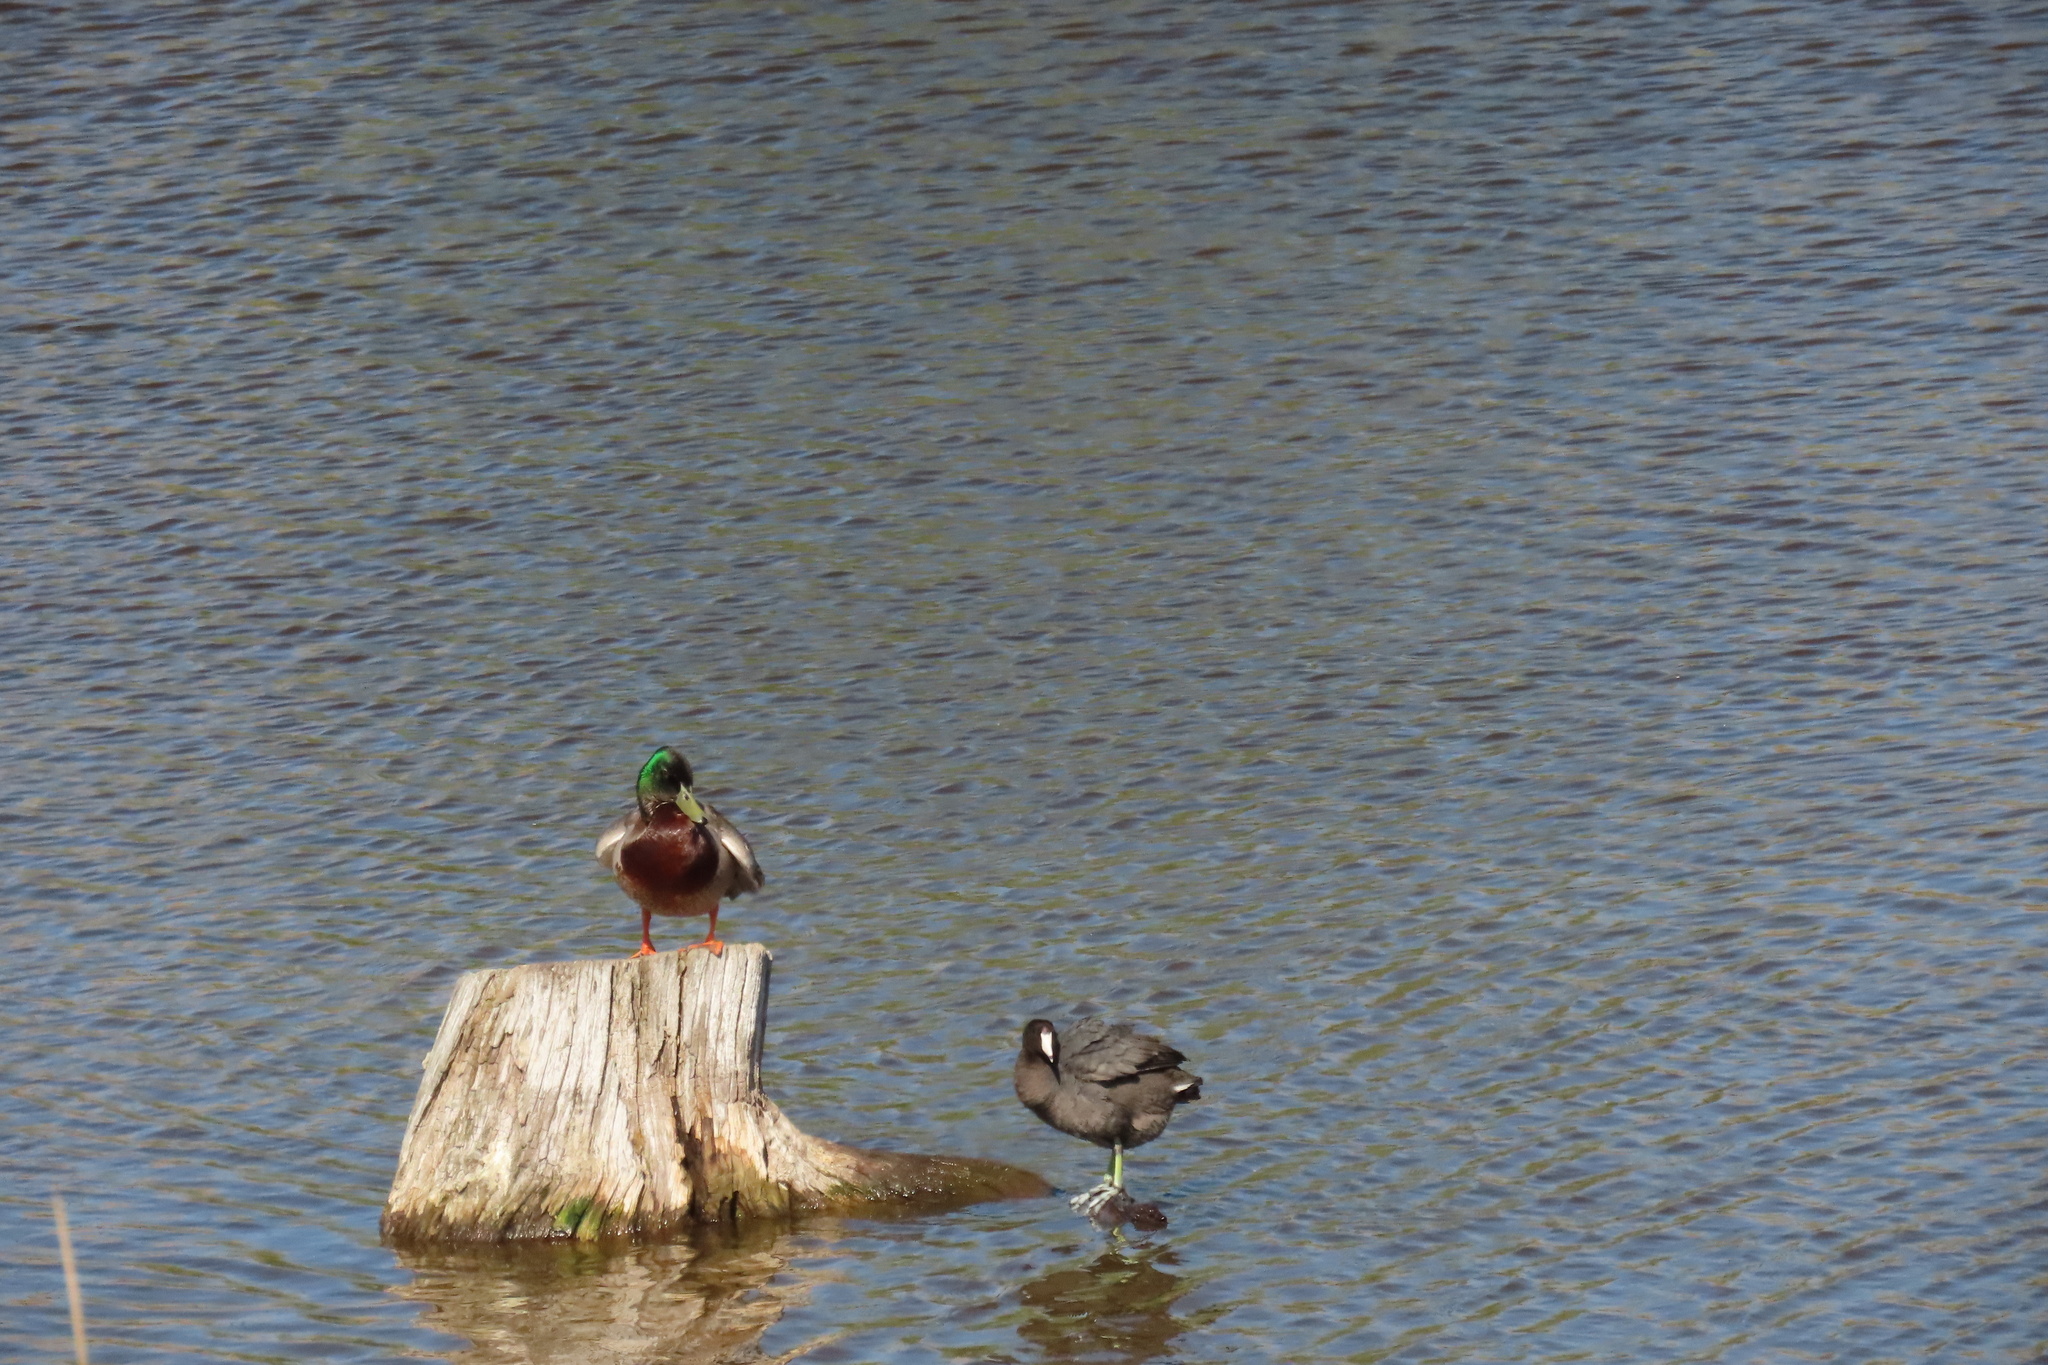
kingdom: Animalia
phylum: Chordata
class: Aves
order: Anseriformes
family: Anatidae
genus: Anas
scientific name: Anas platyrhynchos
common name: Mallard
